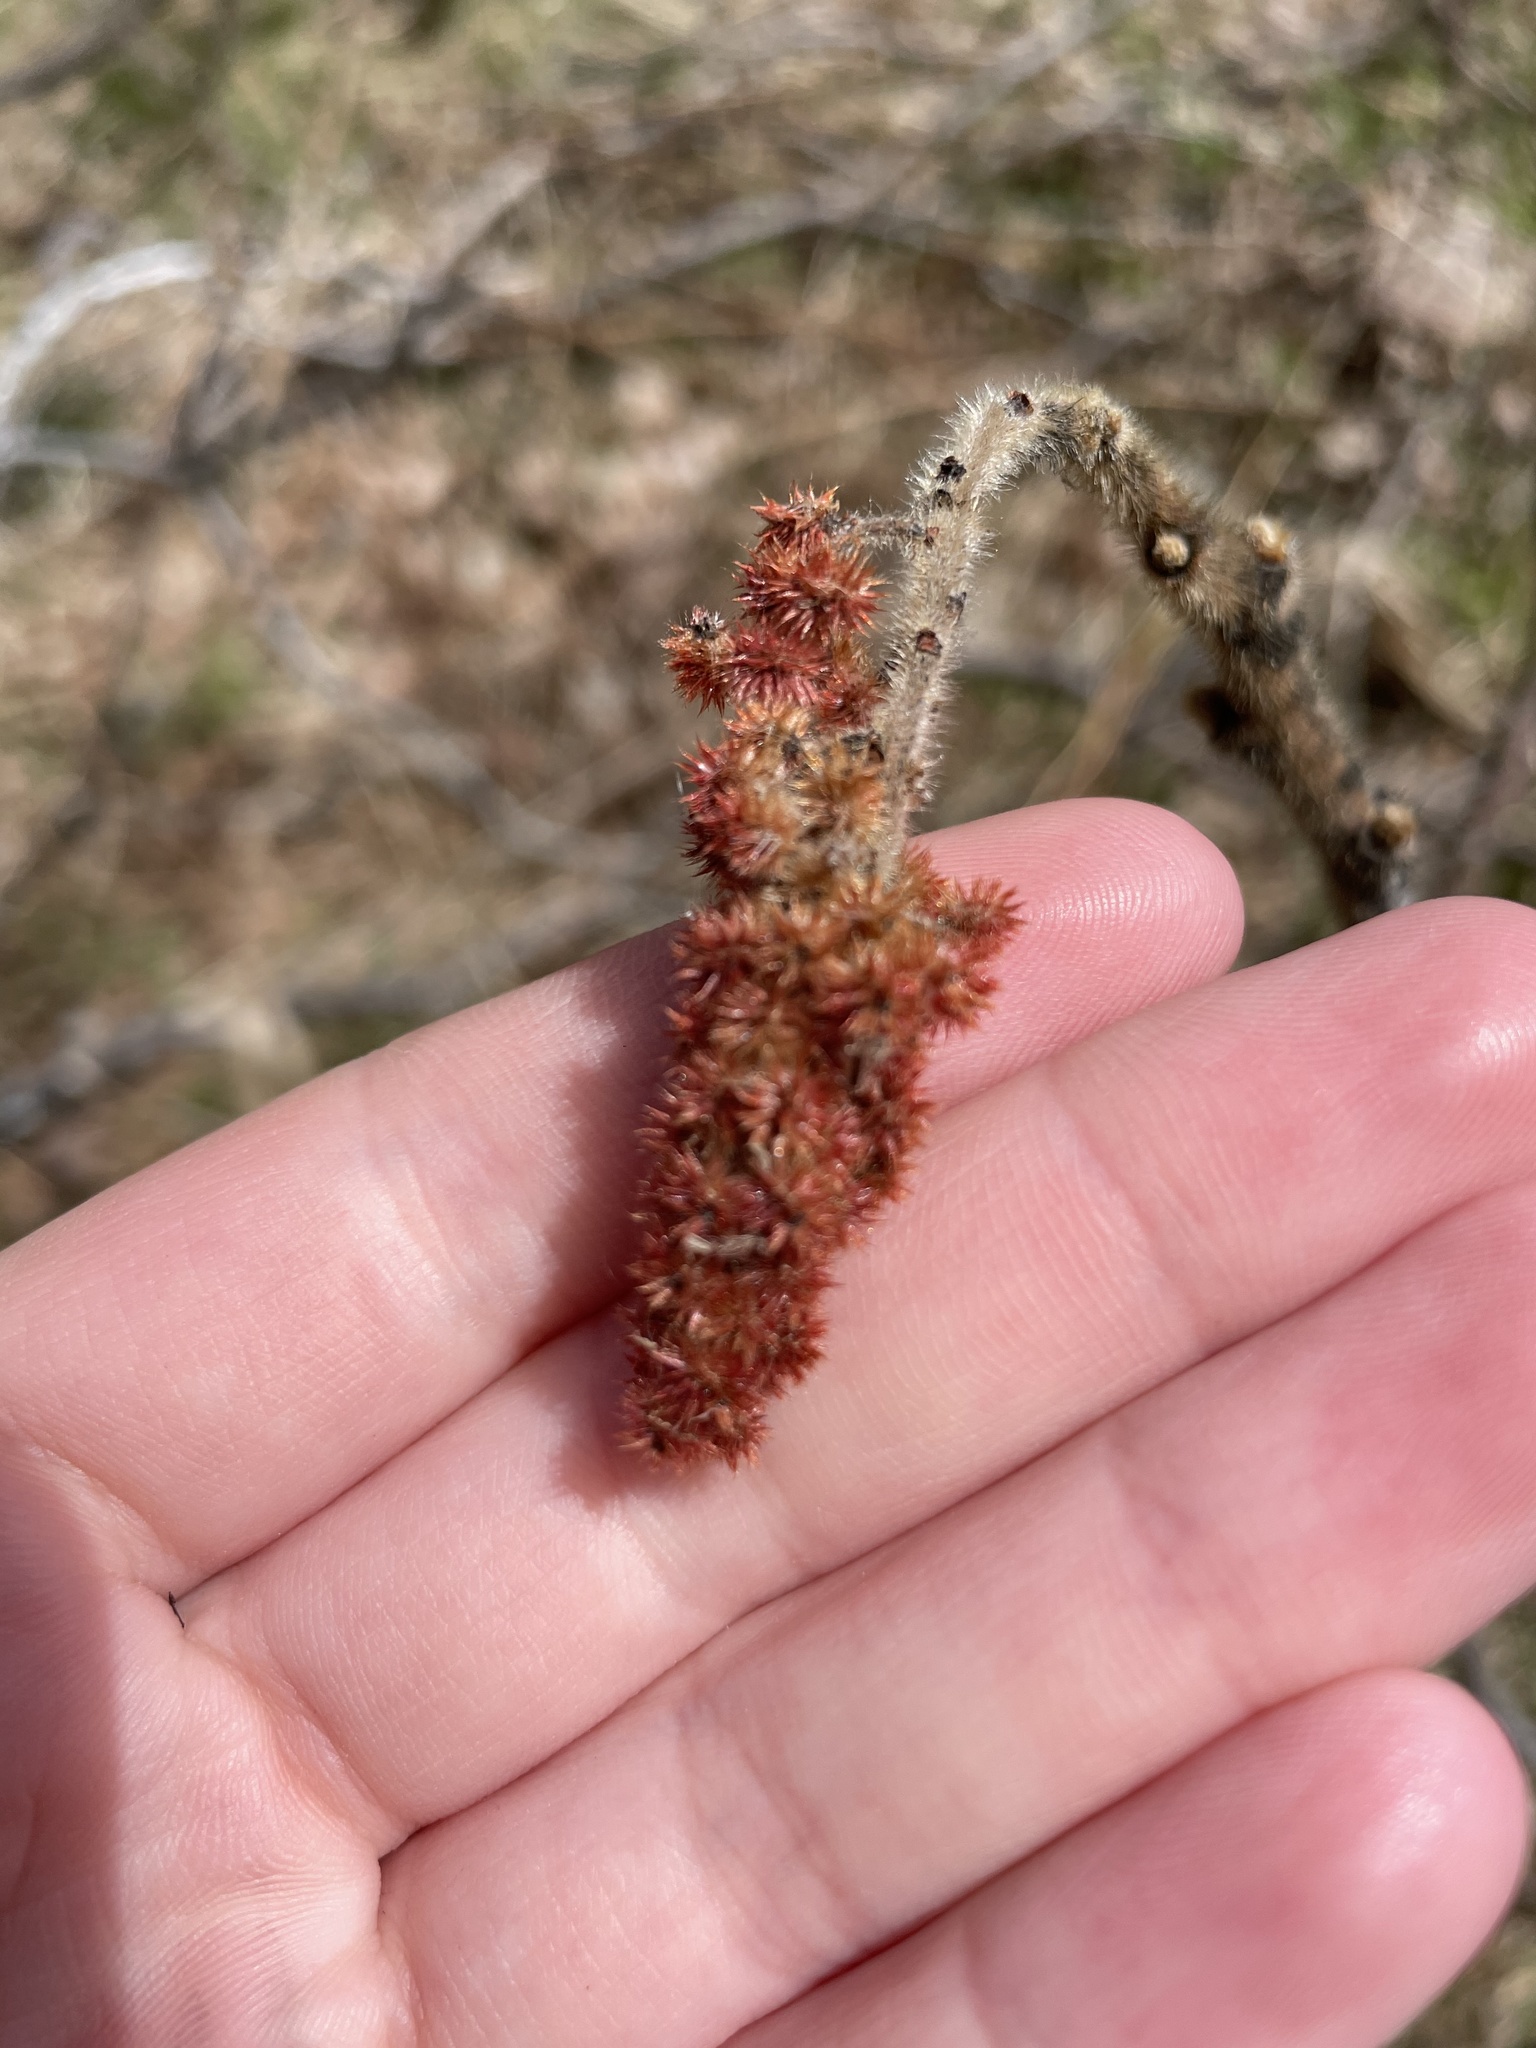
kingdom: Plantae
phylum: Tracheophyta
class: Magnoliopsida
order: Sapindales
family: Anacardiaceae
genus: Rhus
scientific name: Rhus typhina
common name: Staghorn sumac
